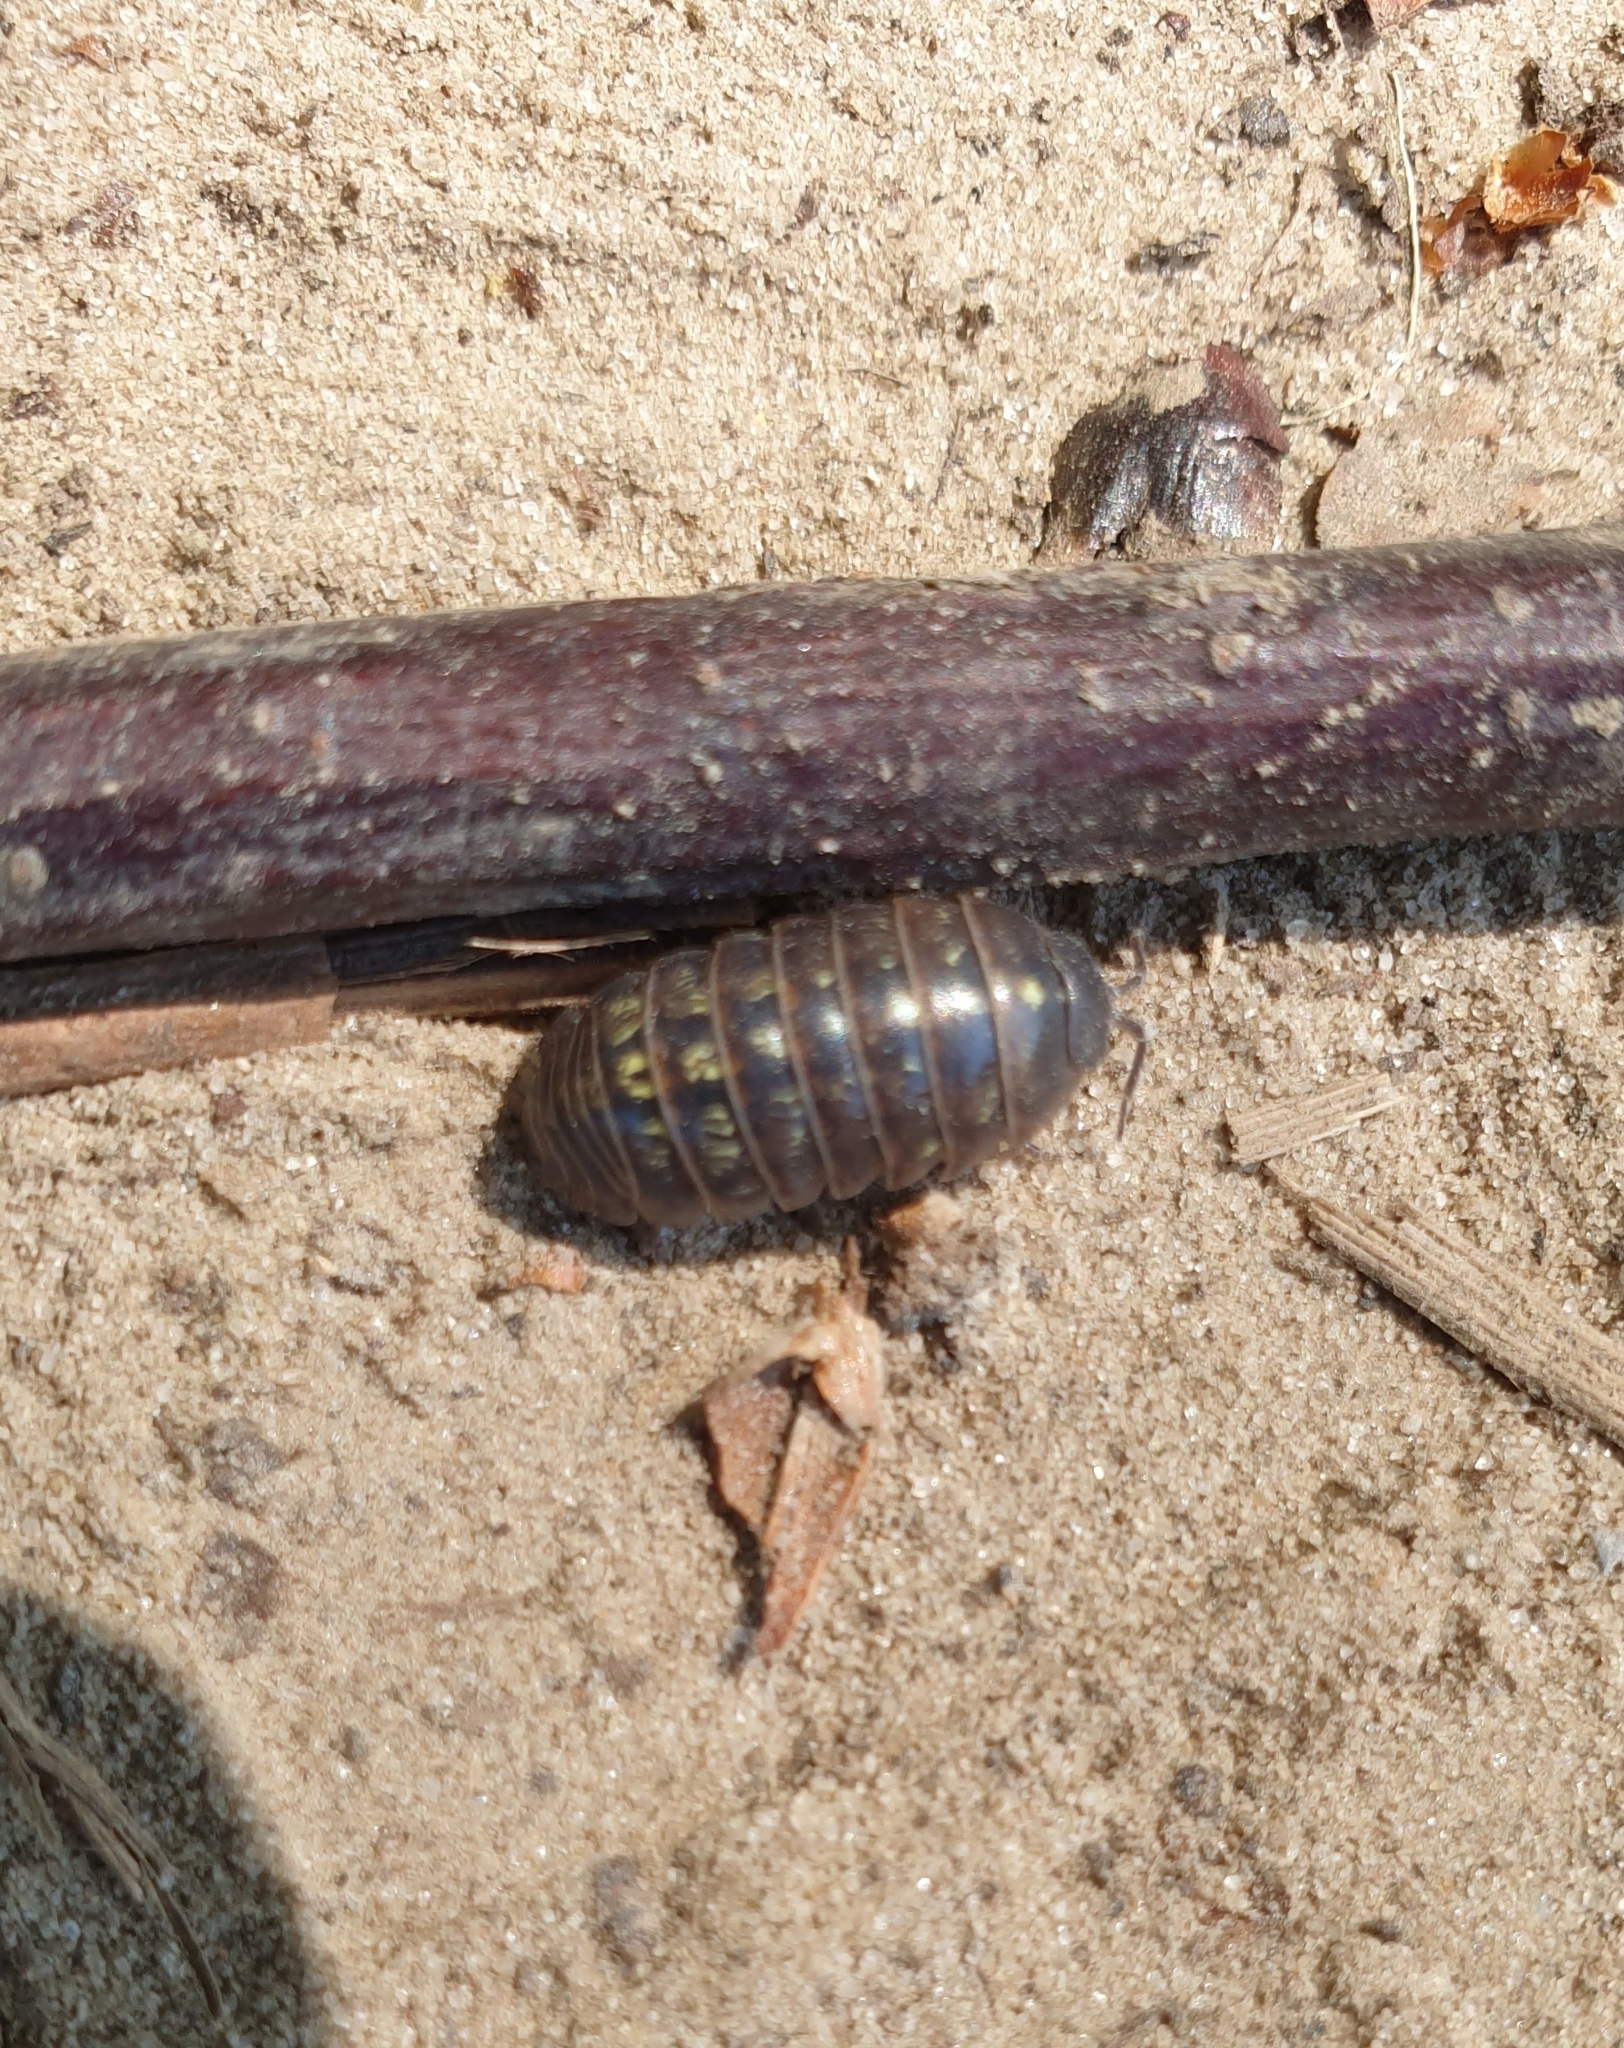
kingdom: Animalia
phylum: Arthropoda
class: Malacostraca
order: Isopoda
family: Armadillidiidae
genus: Armadillidium
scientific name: Armadillidium vulgare
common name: Common pill woodlouse
